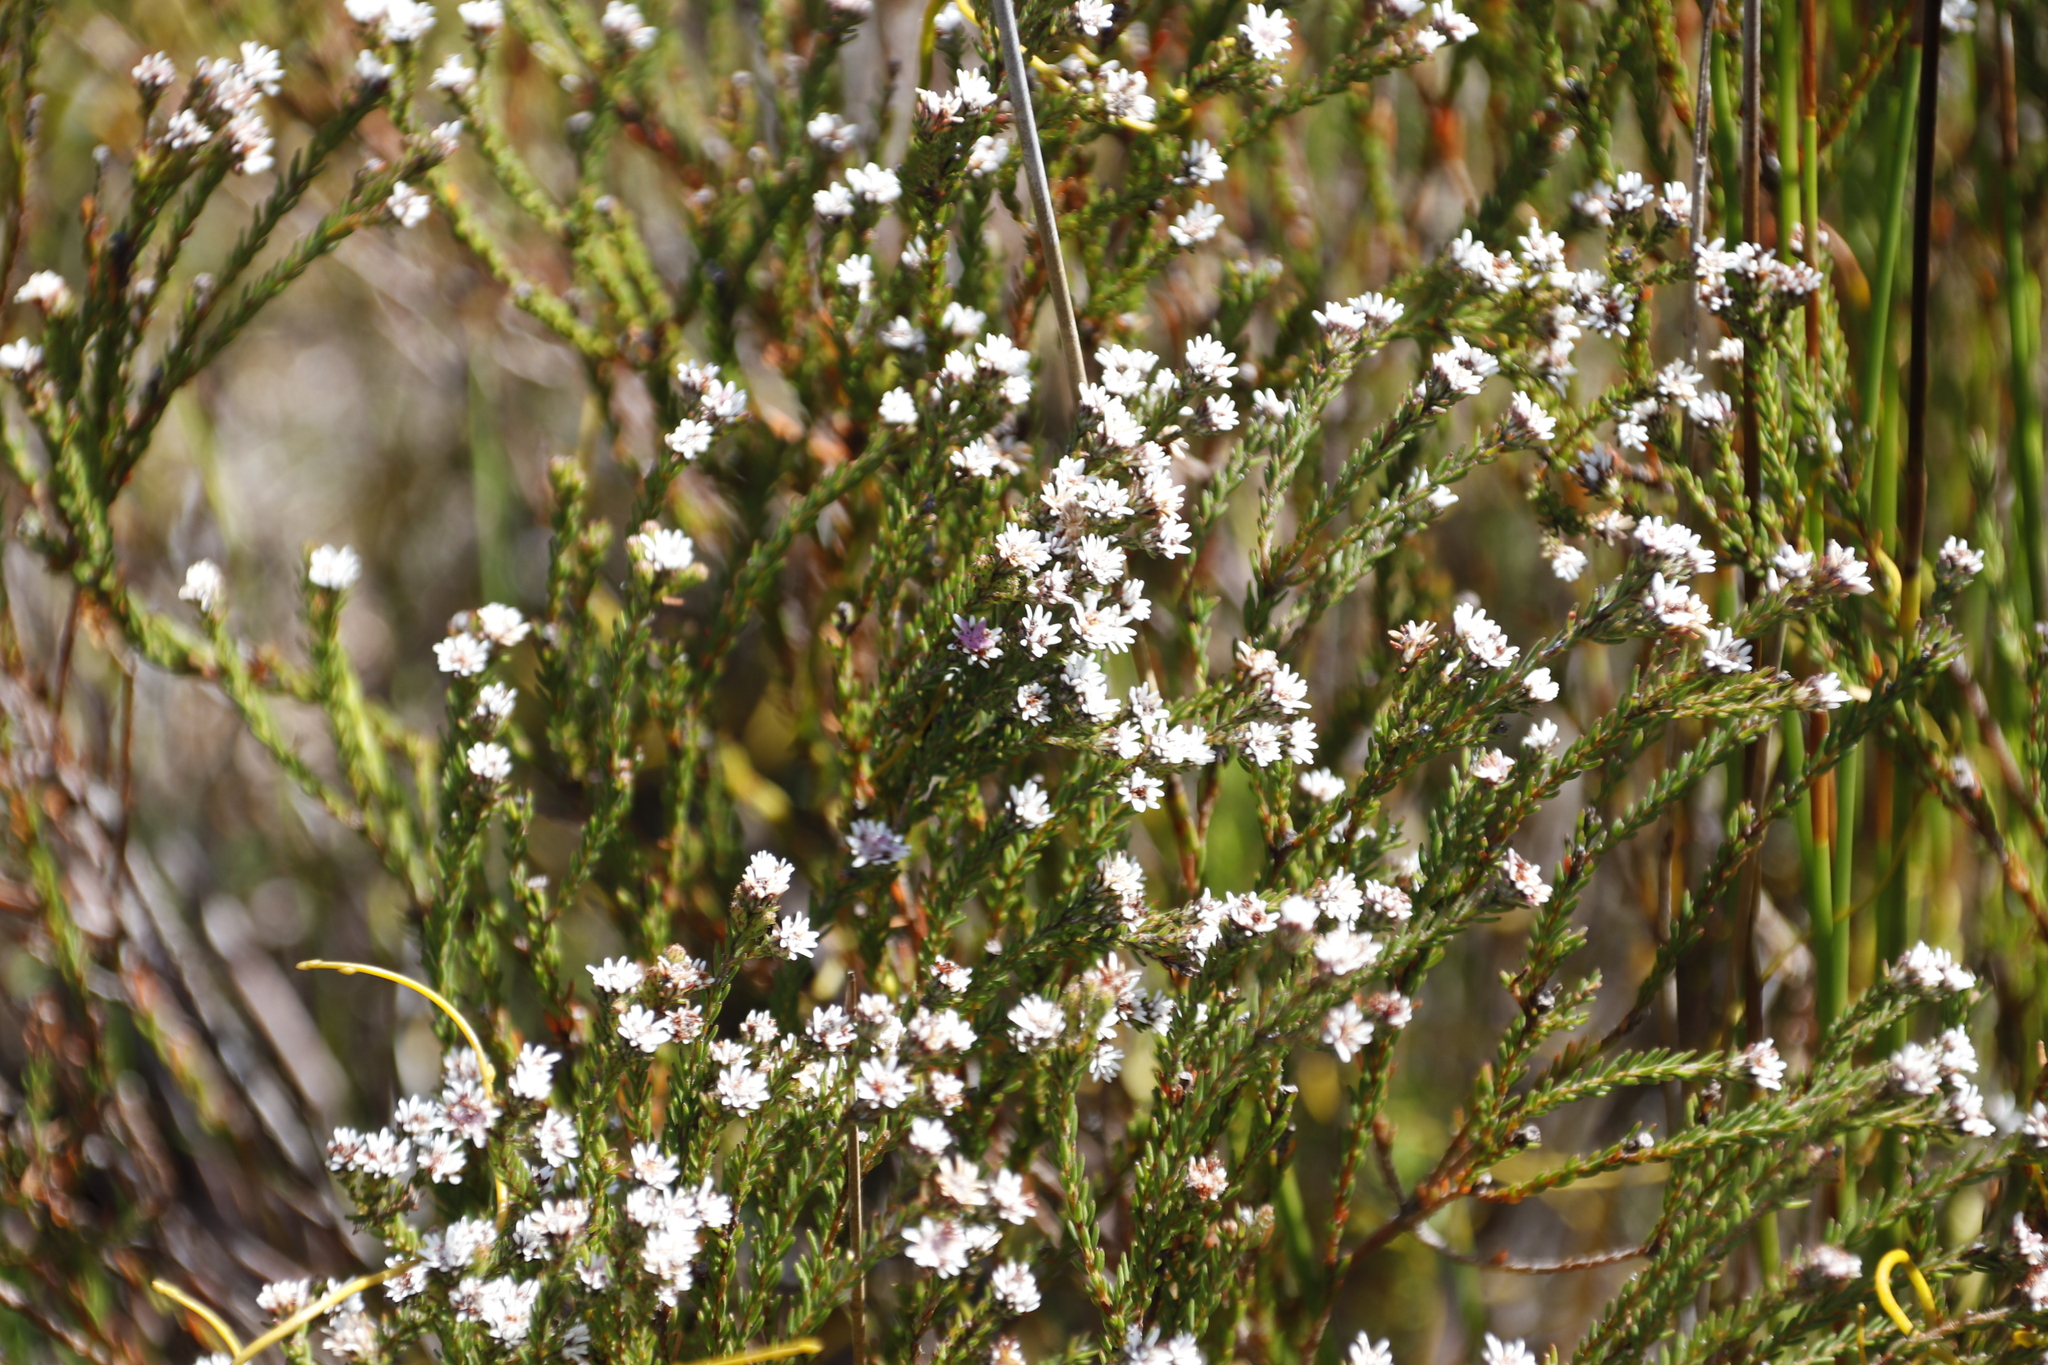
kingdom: Plantae
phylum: Tracheophyta
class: Magnoliopsida
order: Bruniales
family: Bruniaceae
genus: Staavia
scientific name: Staavia radiata
